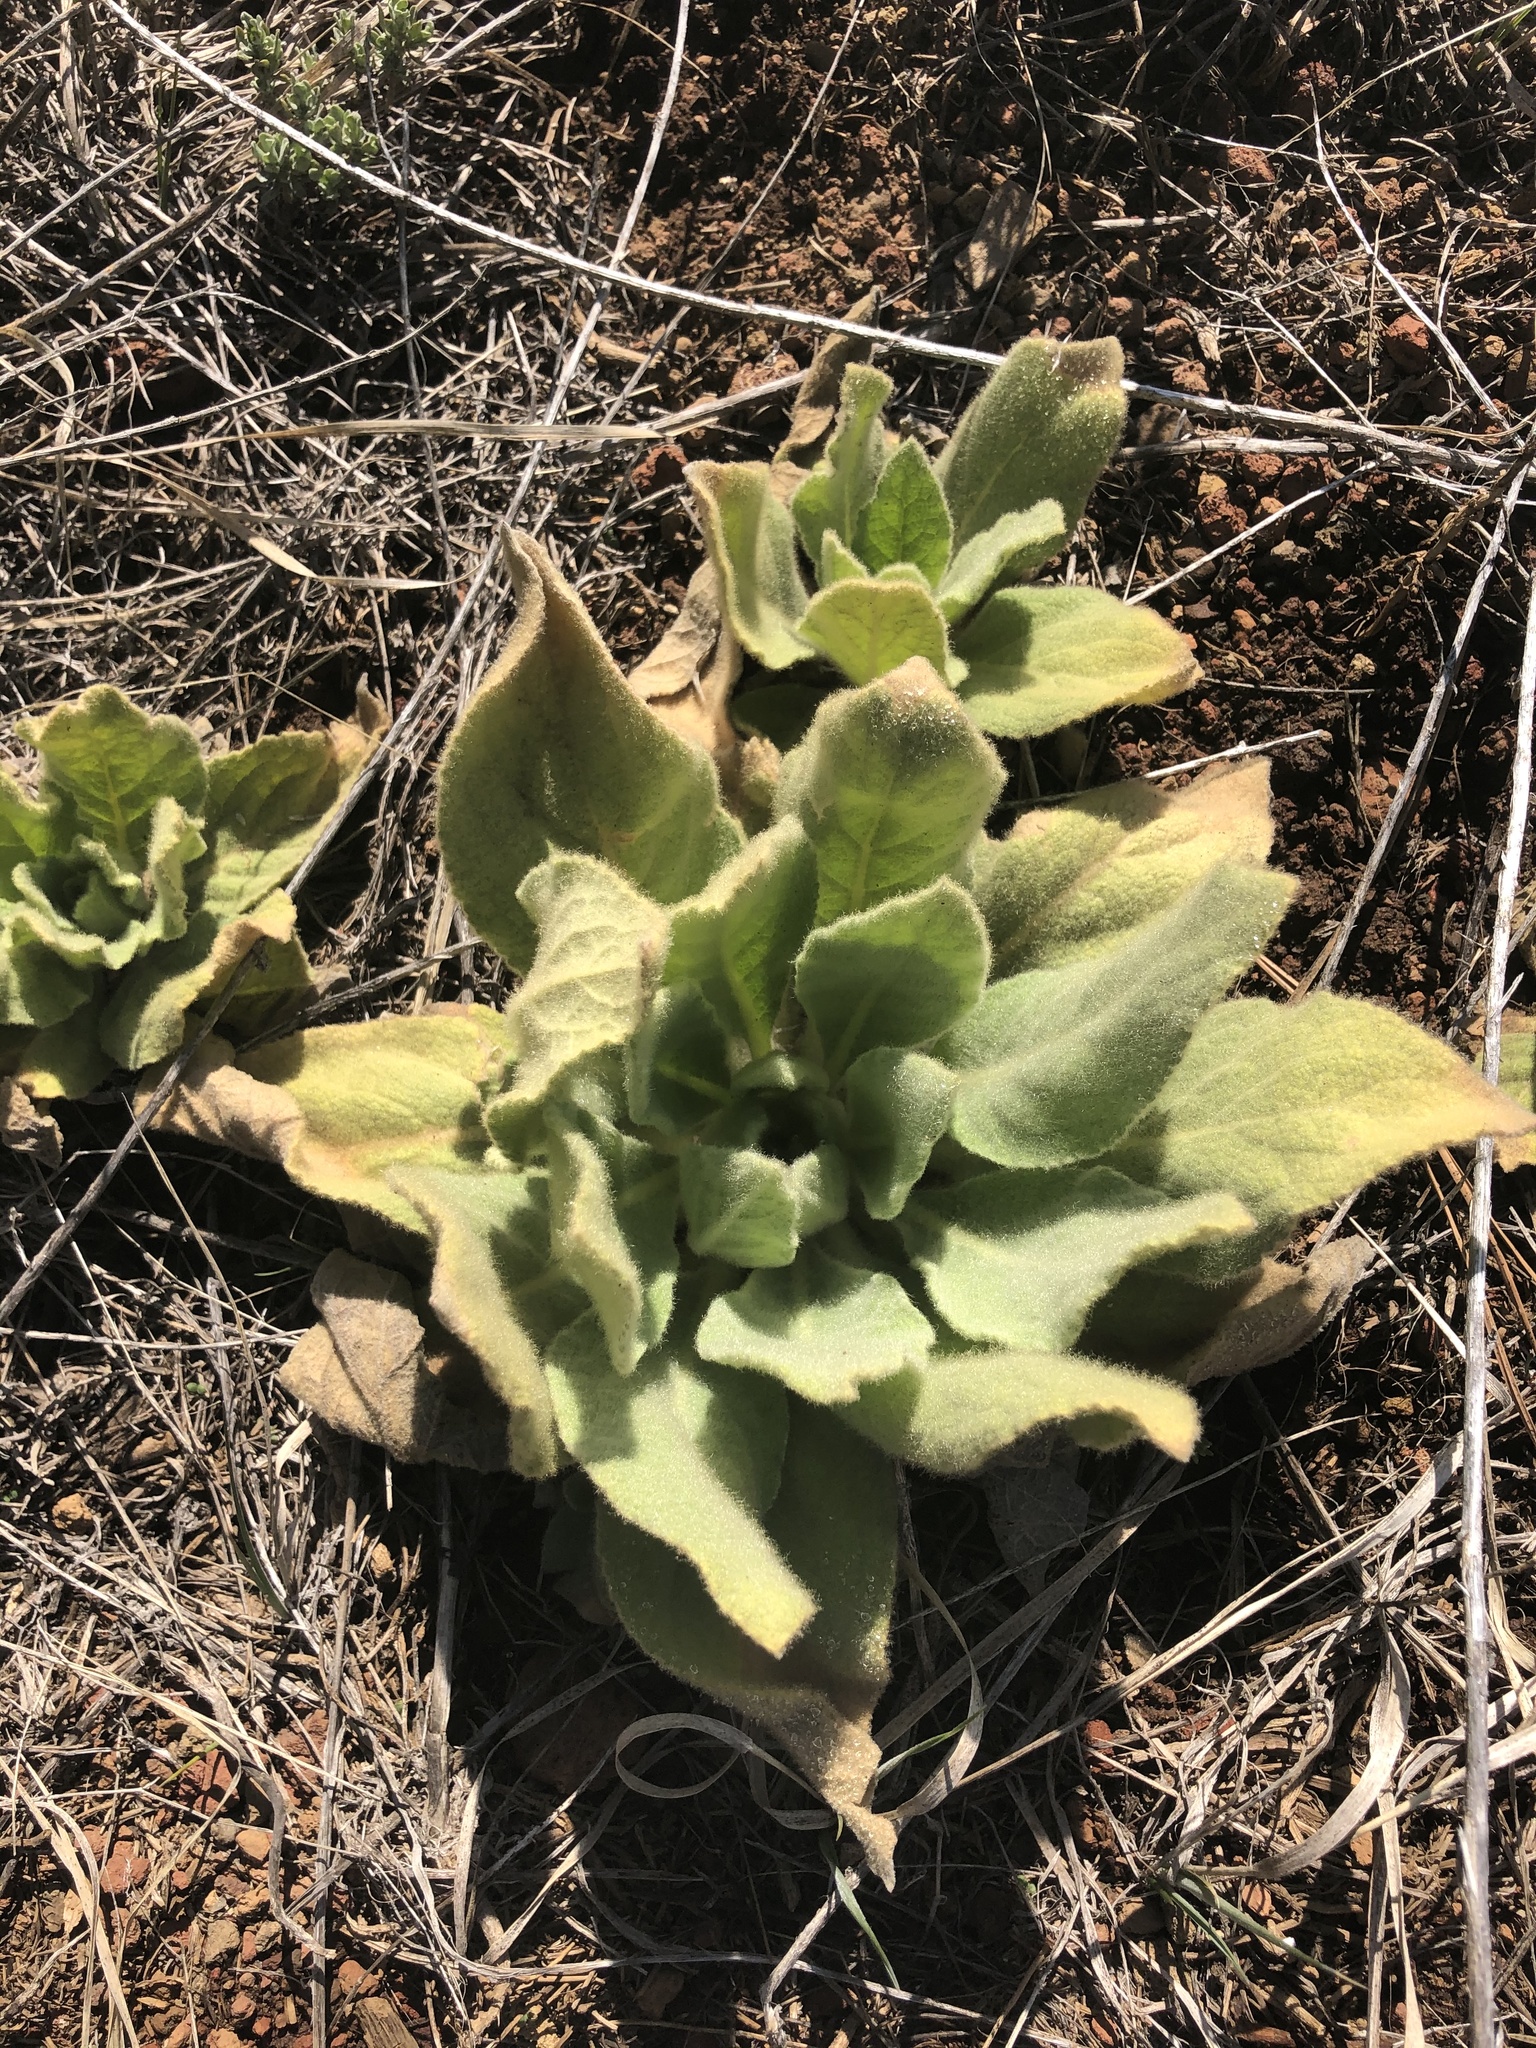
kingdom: Plantae
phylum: Tracheophyta
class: Magnoliopsida
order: Lamiales
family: Scrophulariaceae
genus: Verbascum
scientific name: Verbascum thapsus
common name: Common mullein
